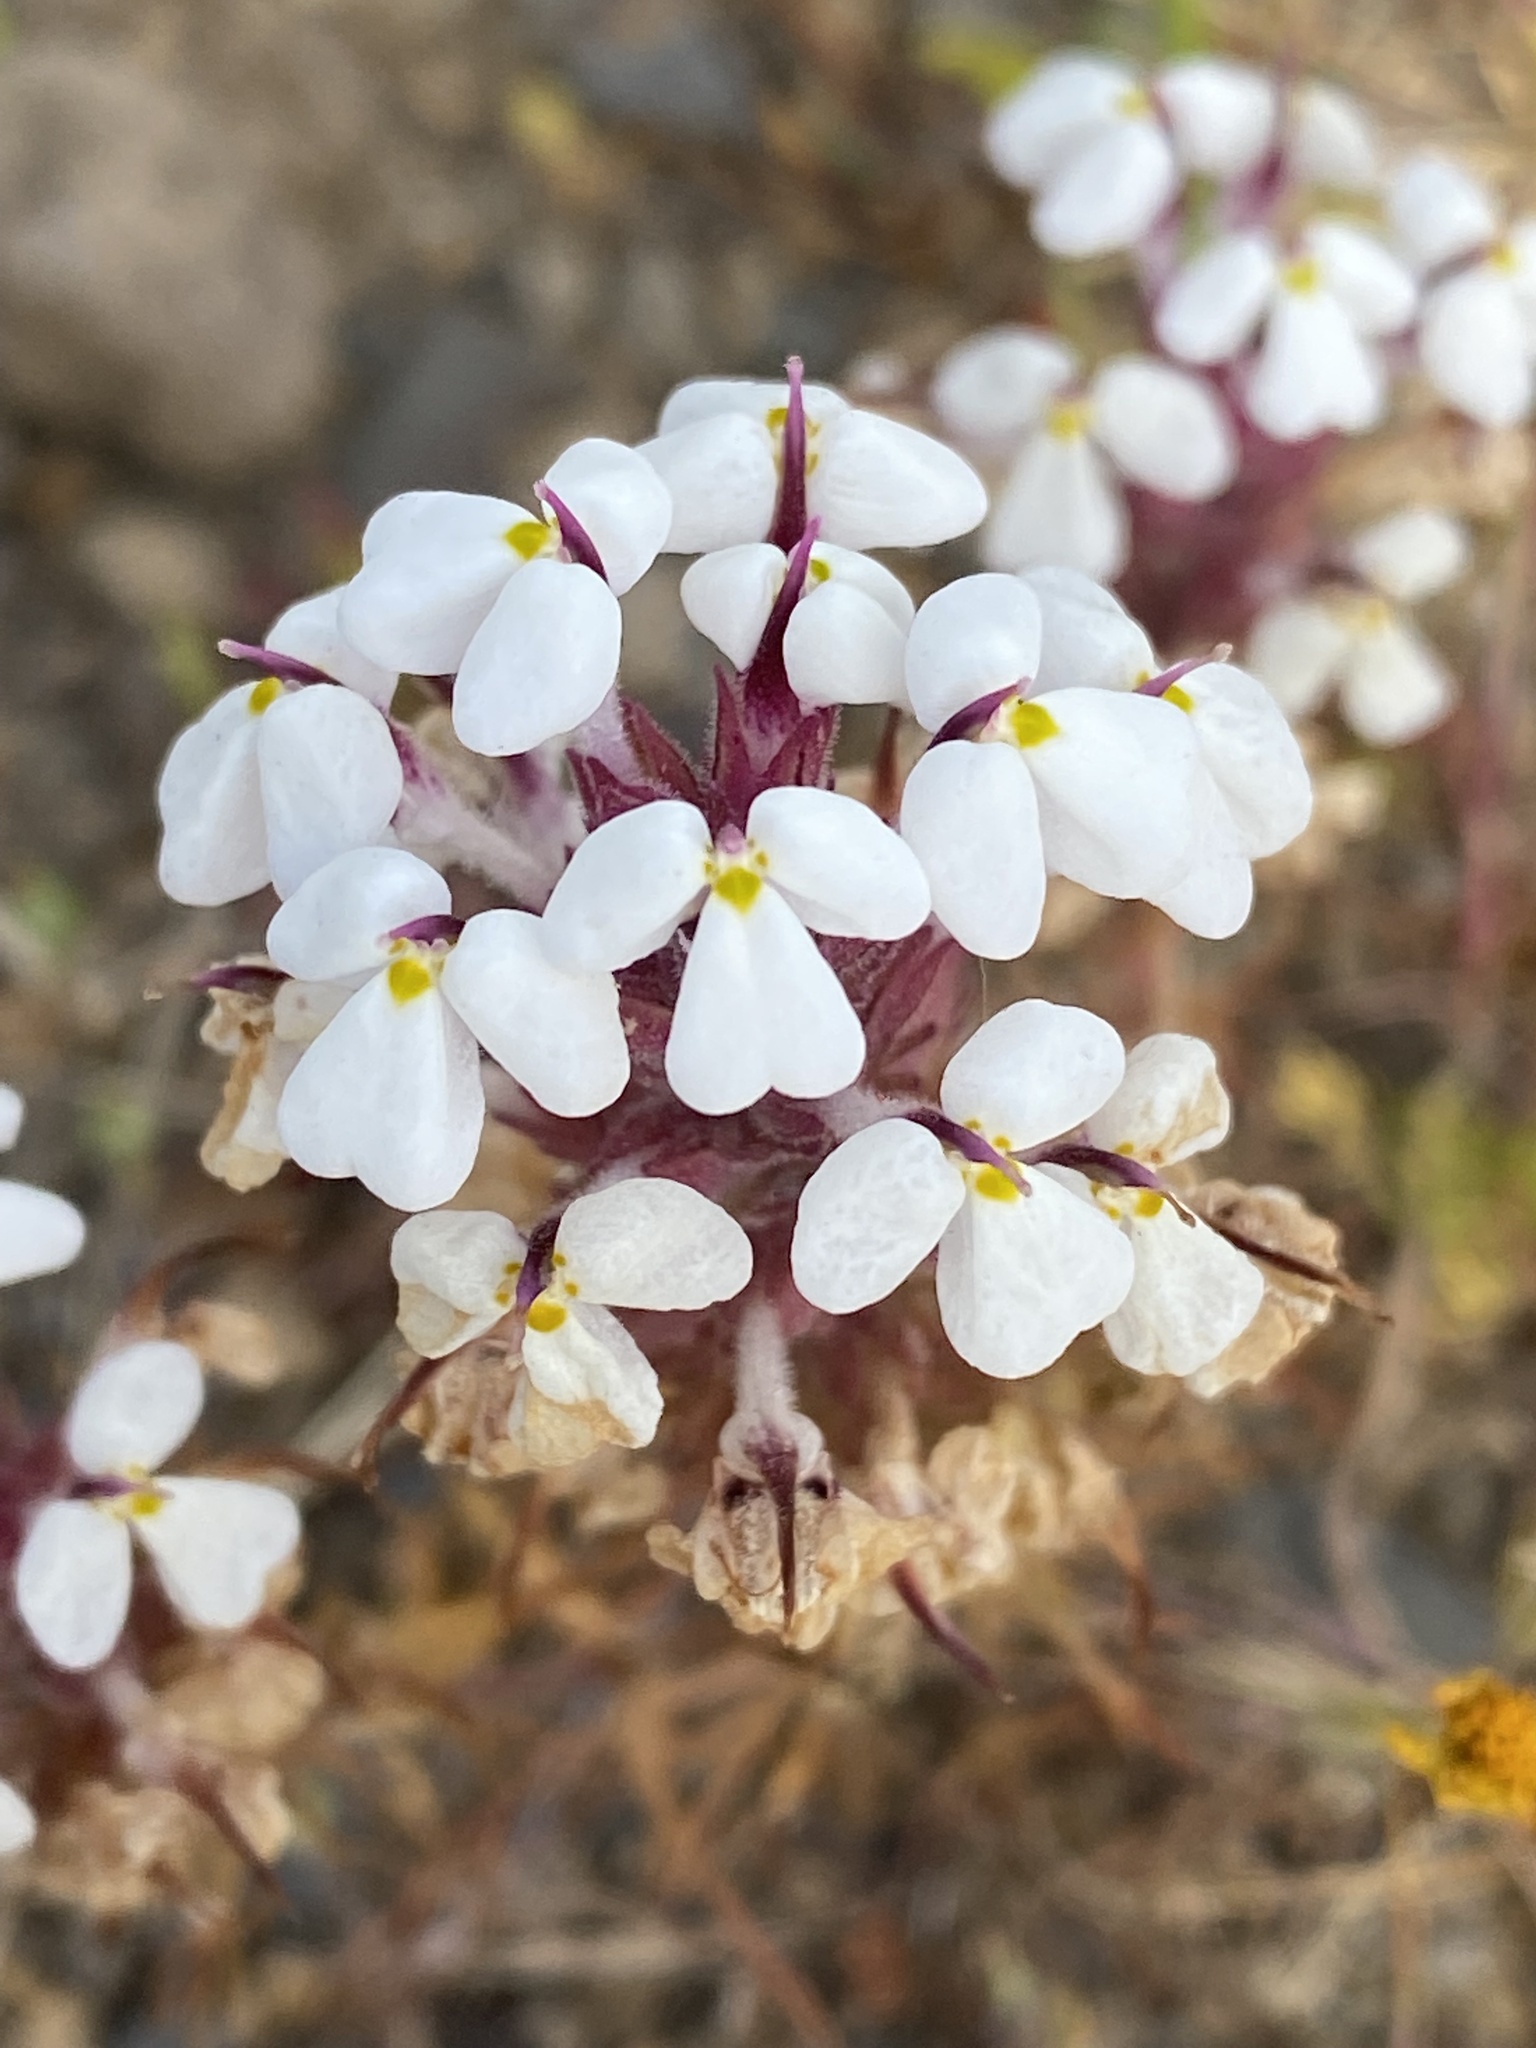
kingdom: Plantae
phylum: Tracheophyta
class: Magnoliopsida
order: Lamiales
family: Orobanchaceae
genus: Triphysaria
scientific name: Triphysaria eriantha
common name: Johnny-tuck
